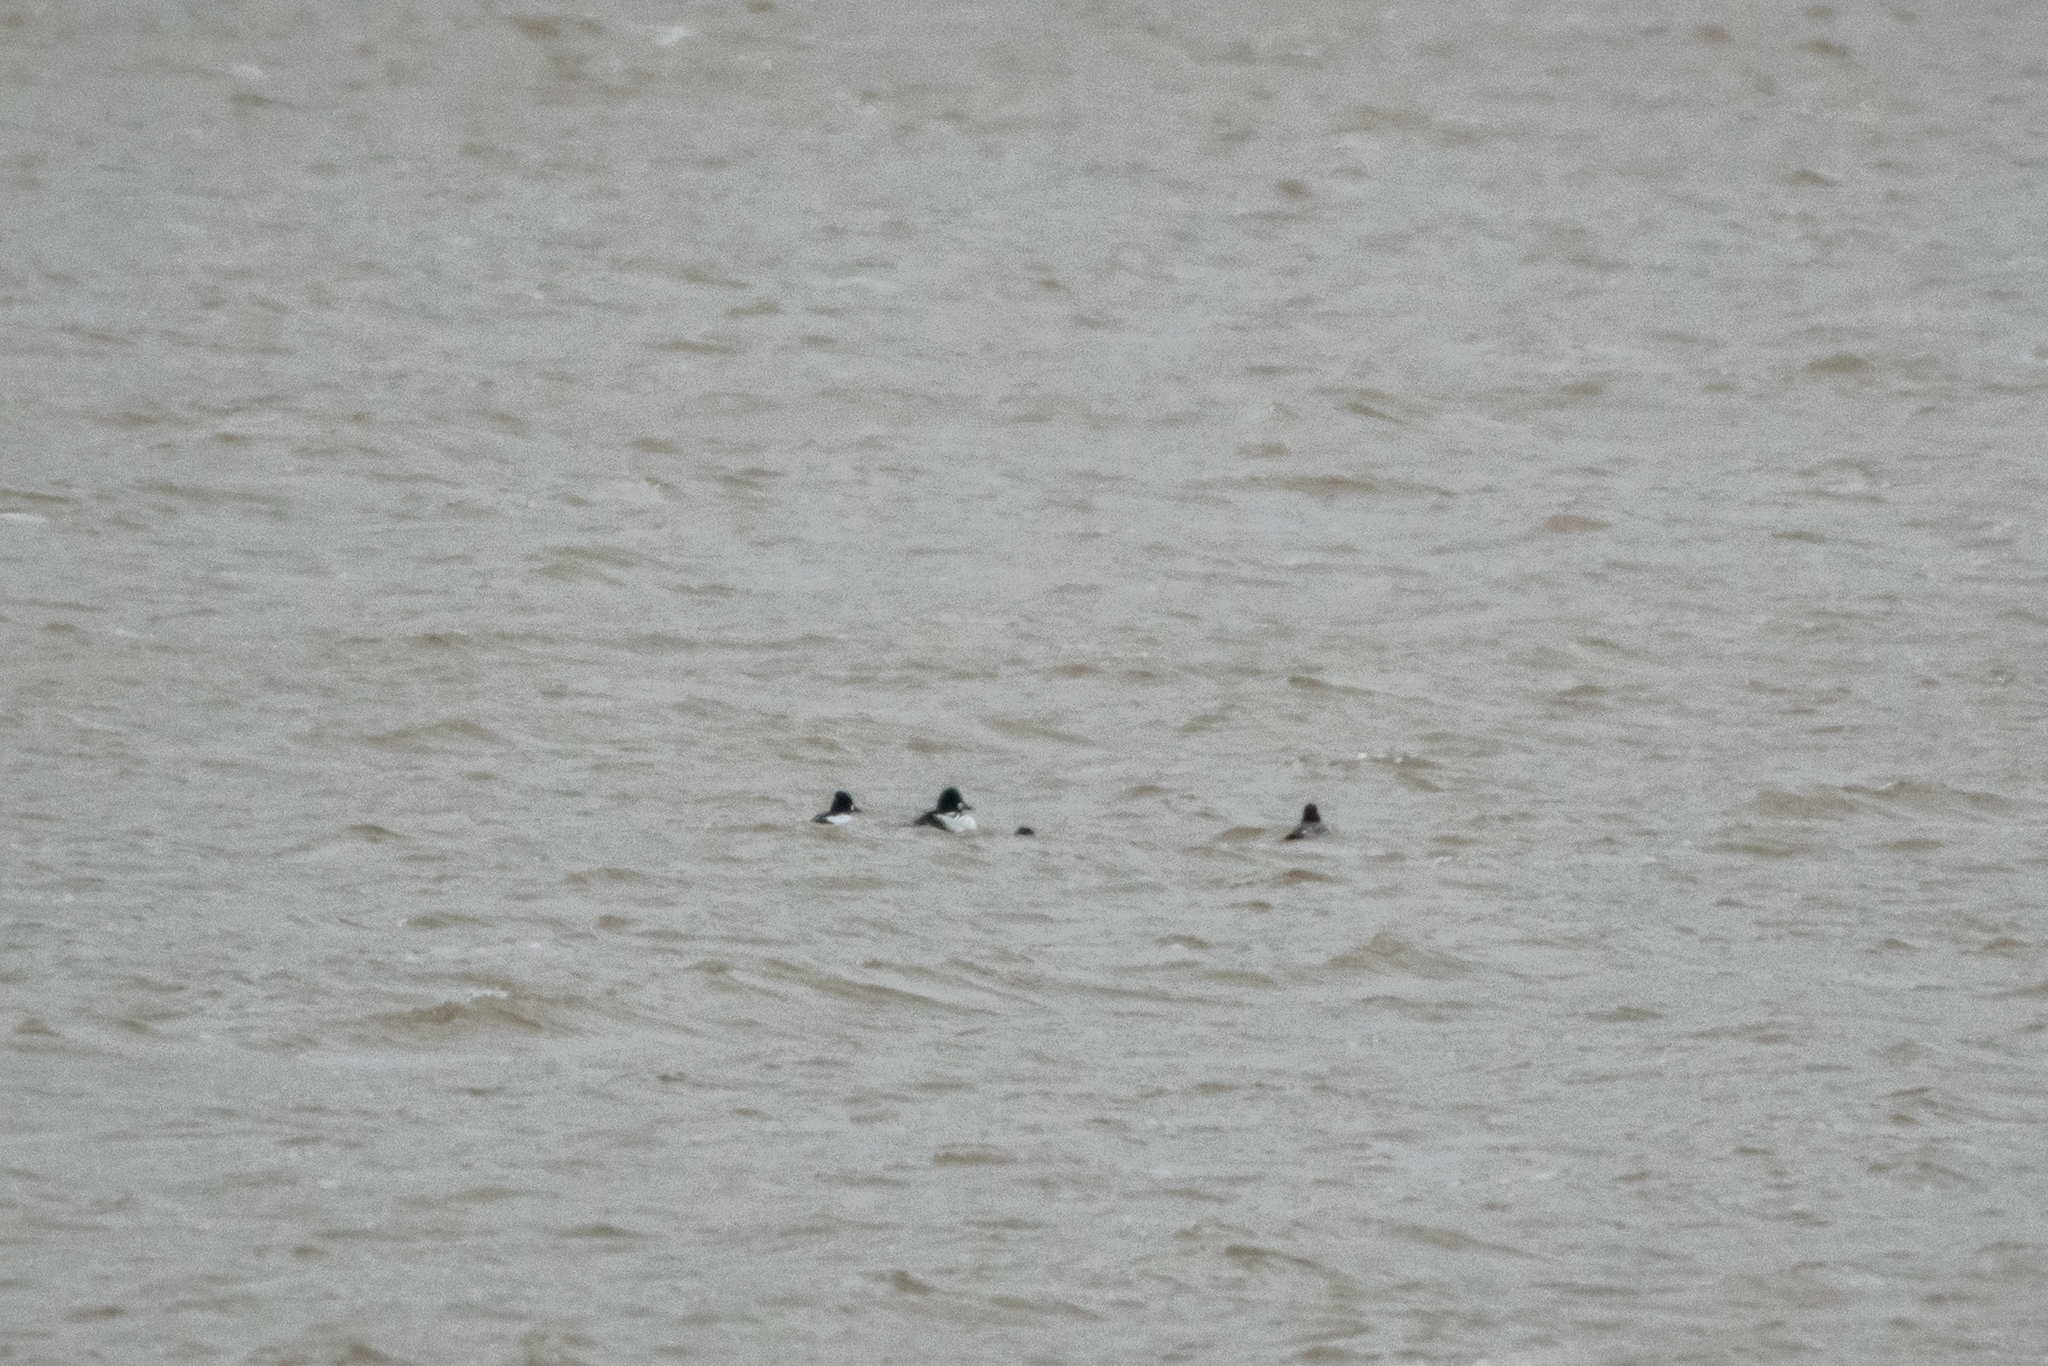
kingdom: Animalia
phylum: Chordata
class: Aves
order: Anseriformes
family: Anatidae
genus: Bucephala
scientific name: Bucephala clangula
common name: Common goldeneye
